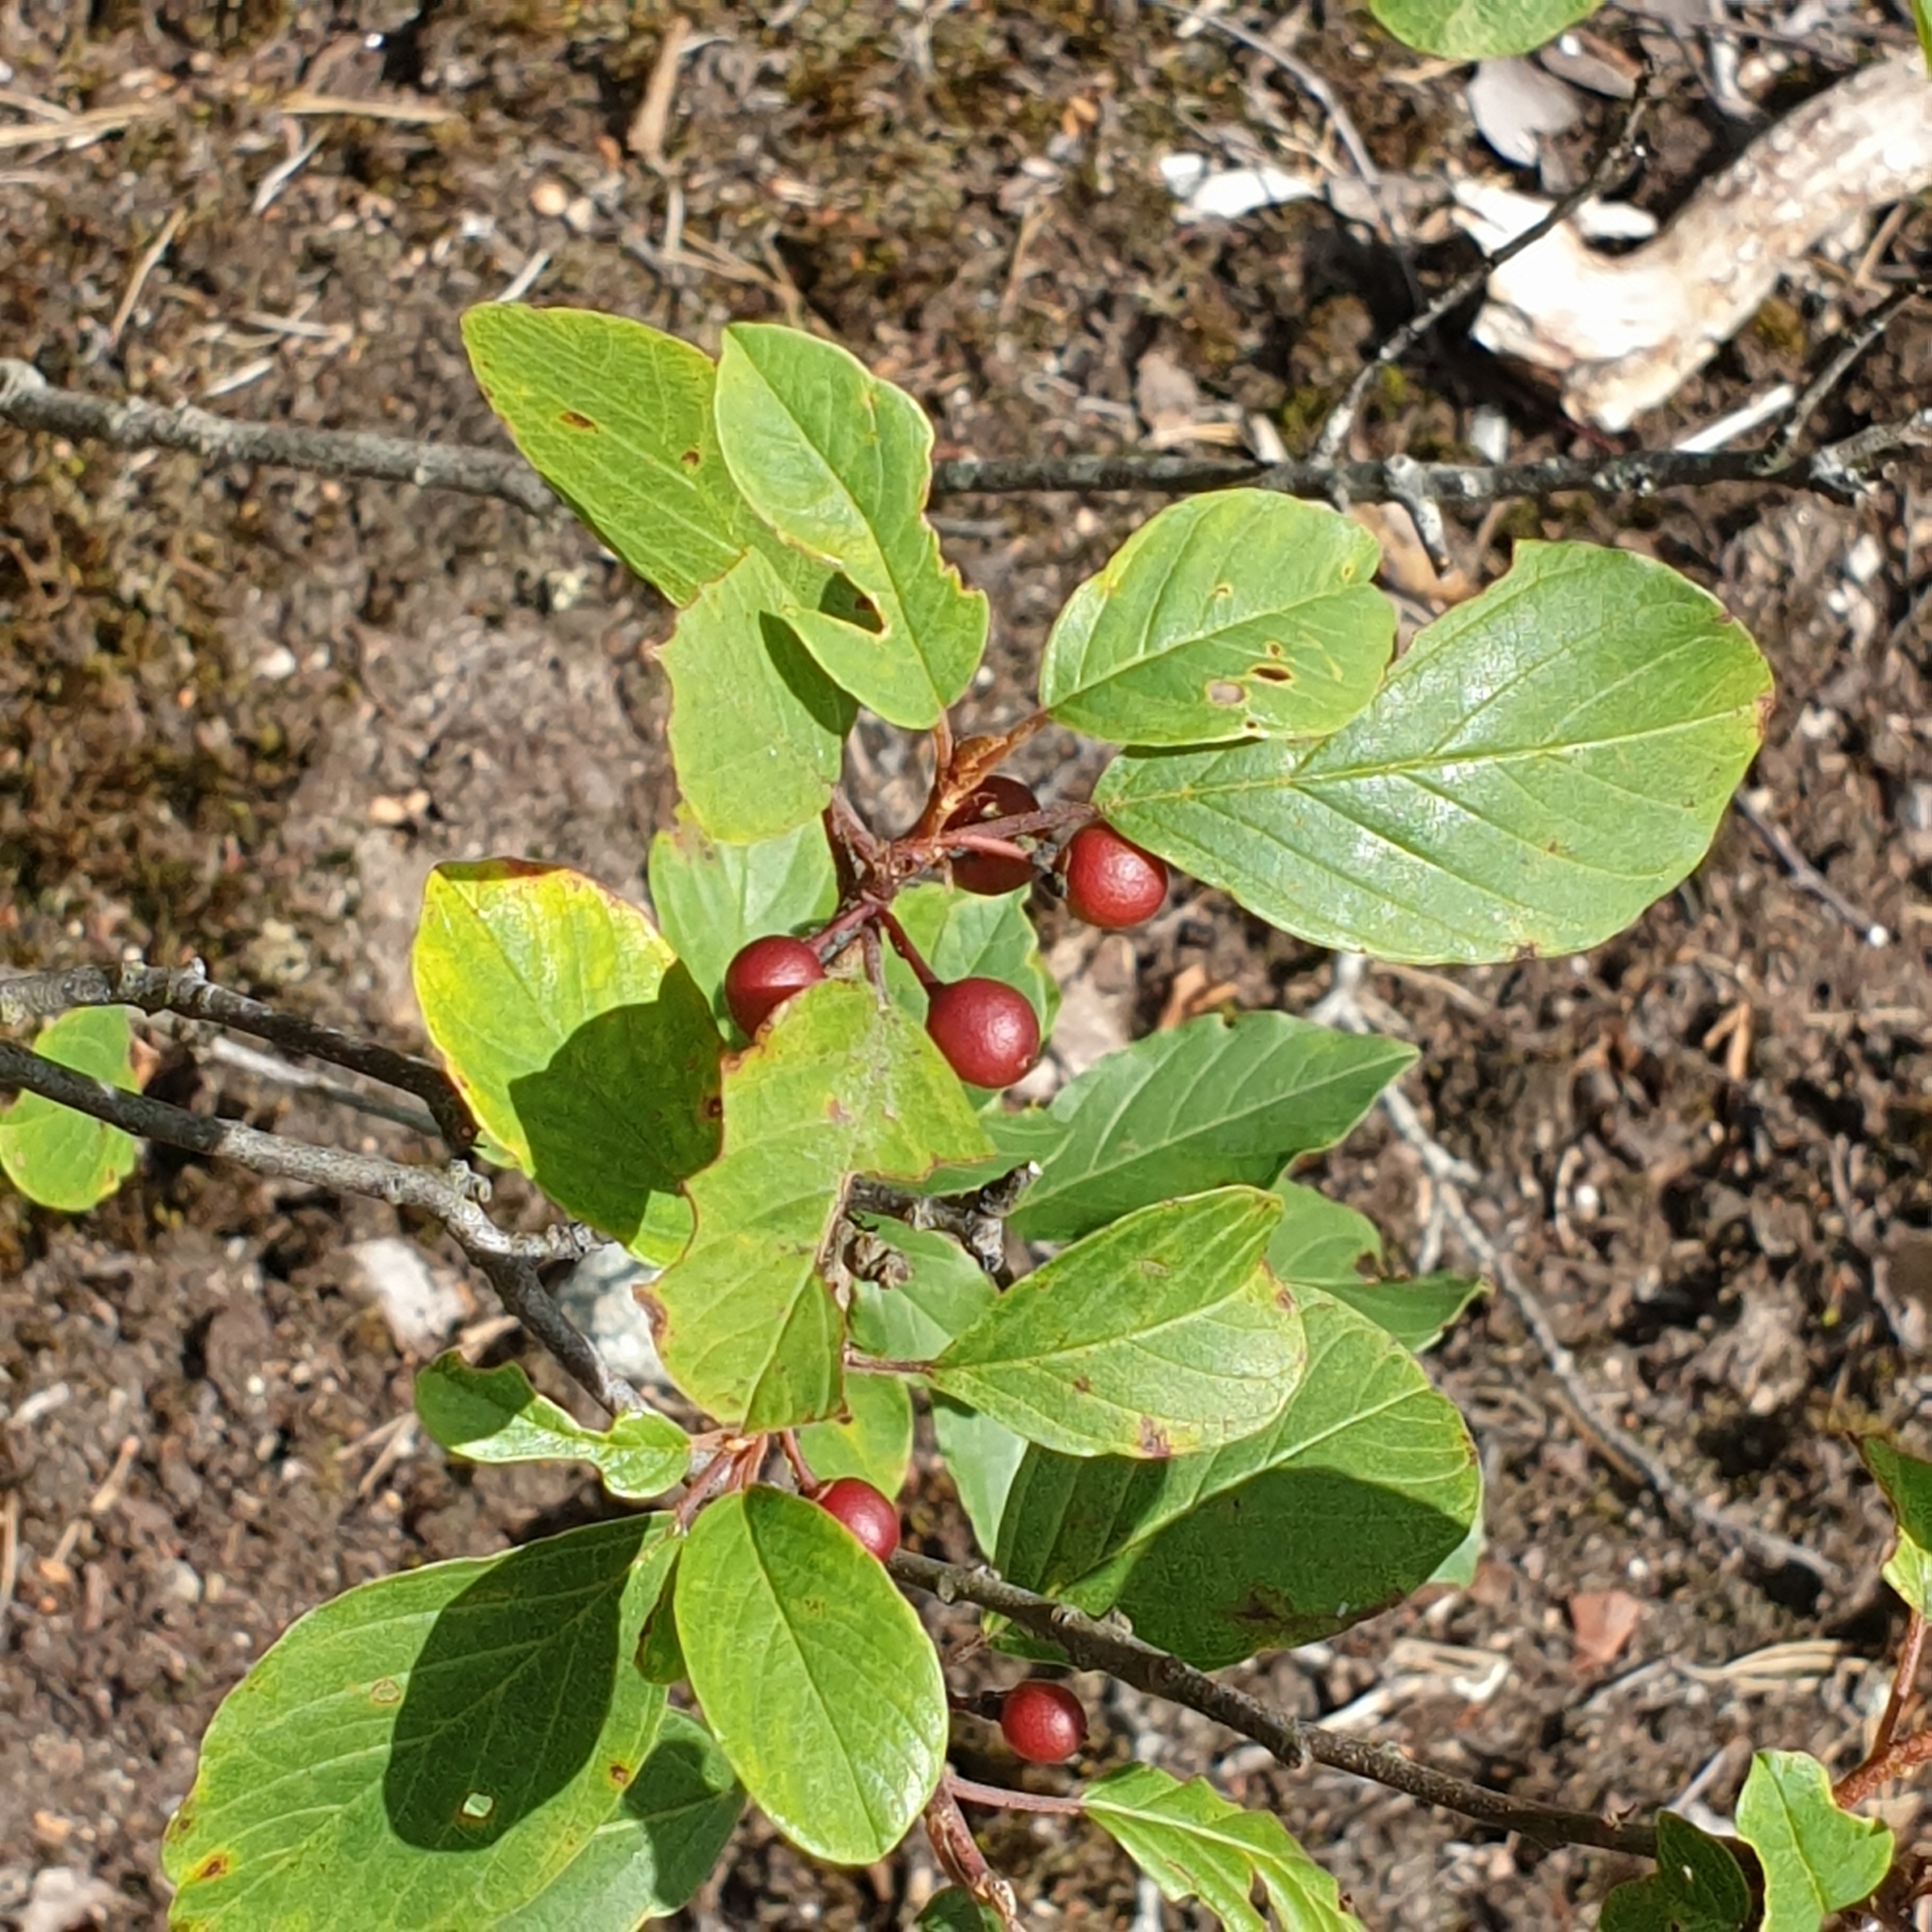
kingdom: Plantae
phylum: Tracheophyta
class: Magnoliopsida
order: Rosales
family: Rhamnaceae
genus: Frangula
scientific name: Frangula alnus
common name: Alder buckthorn
